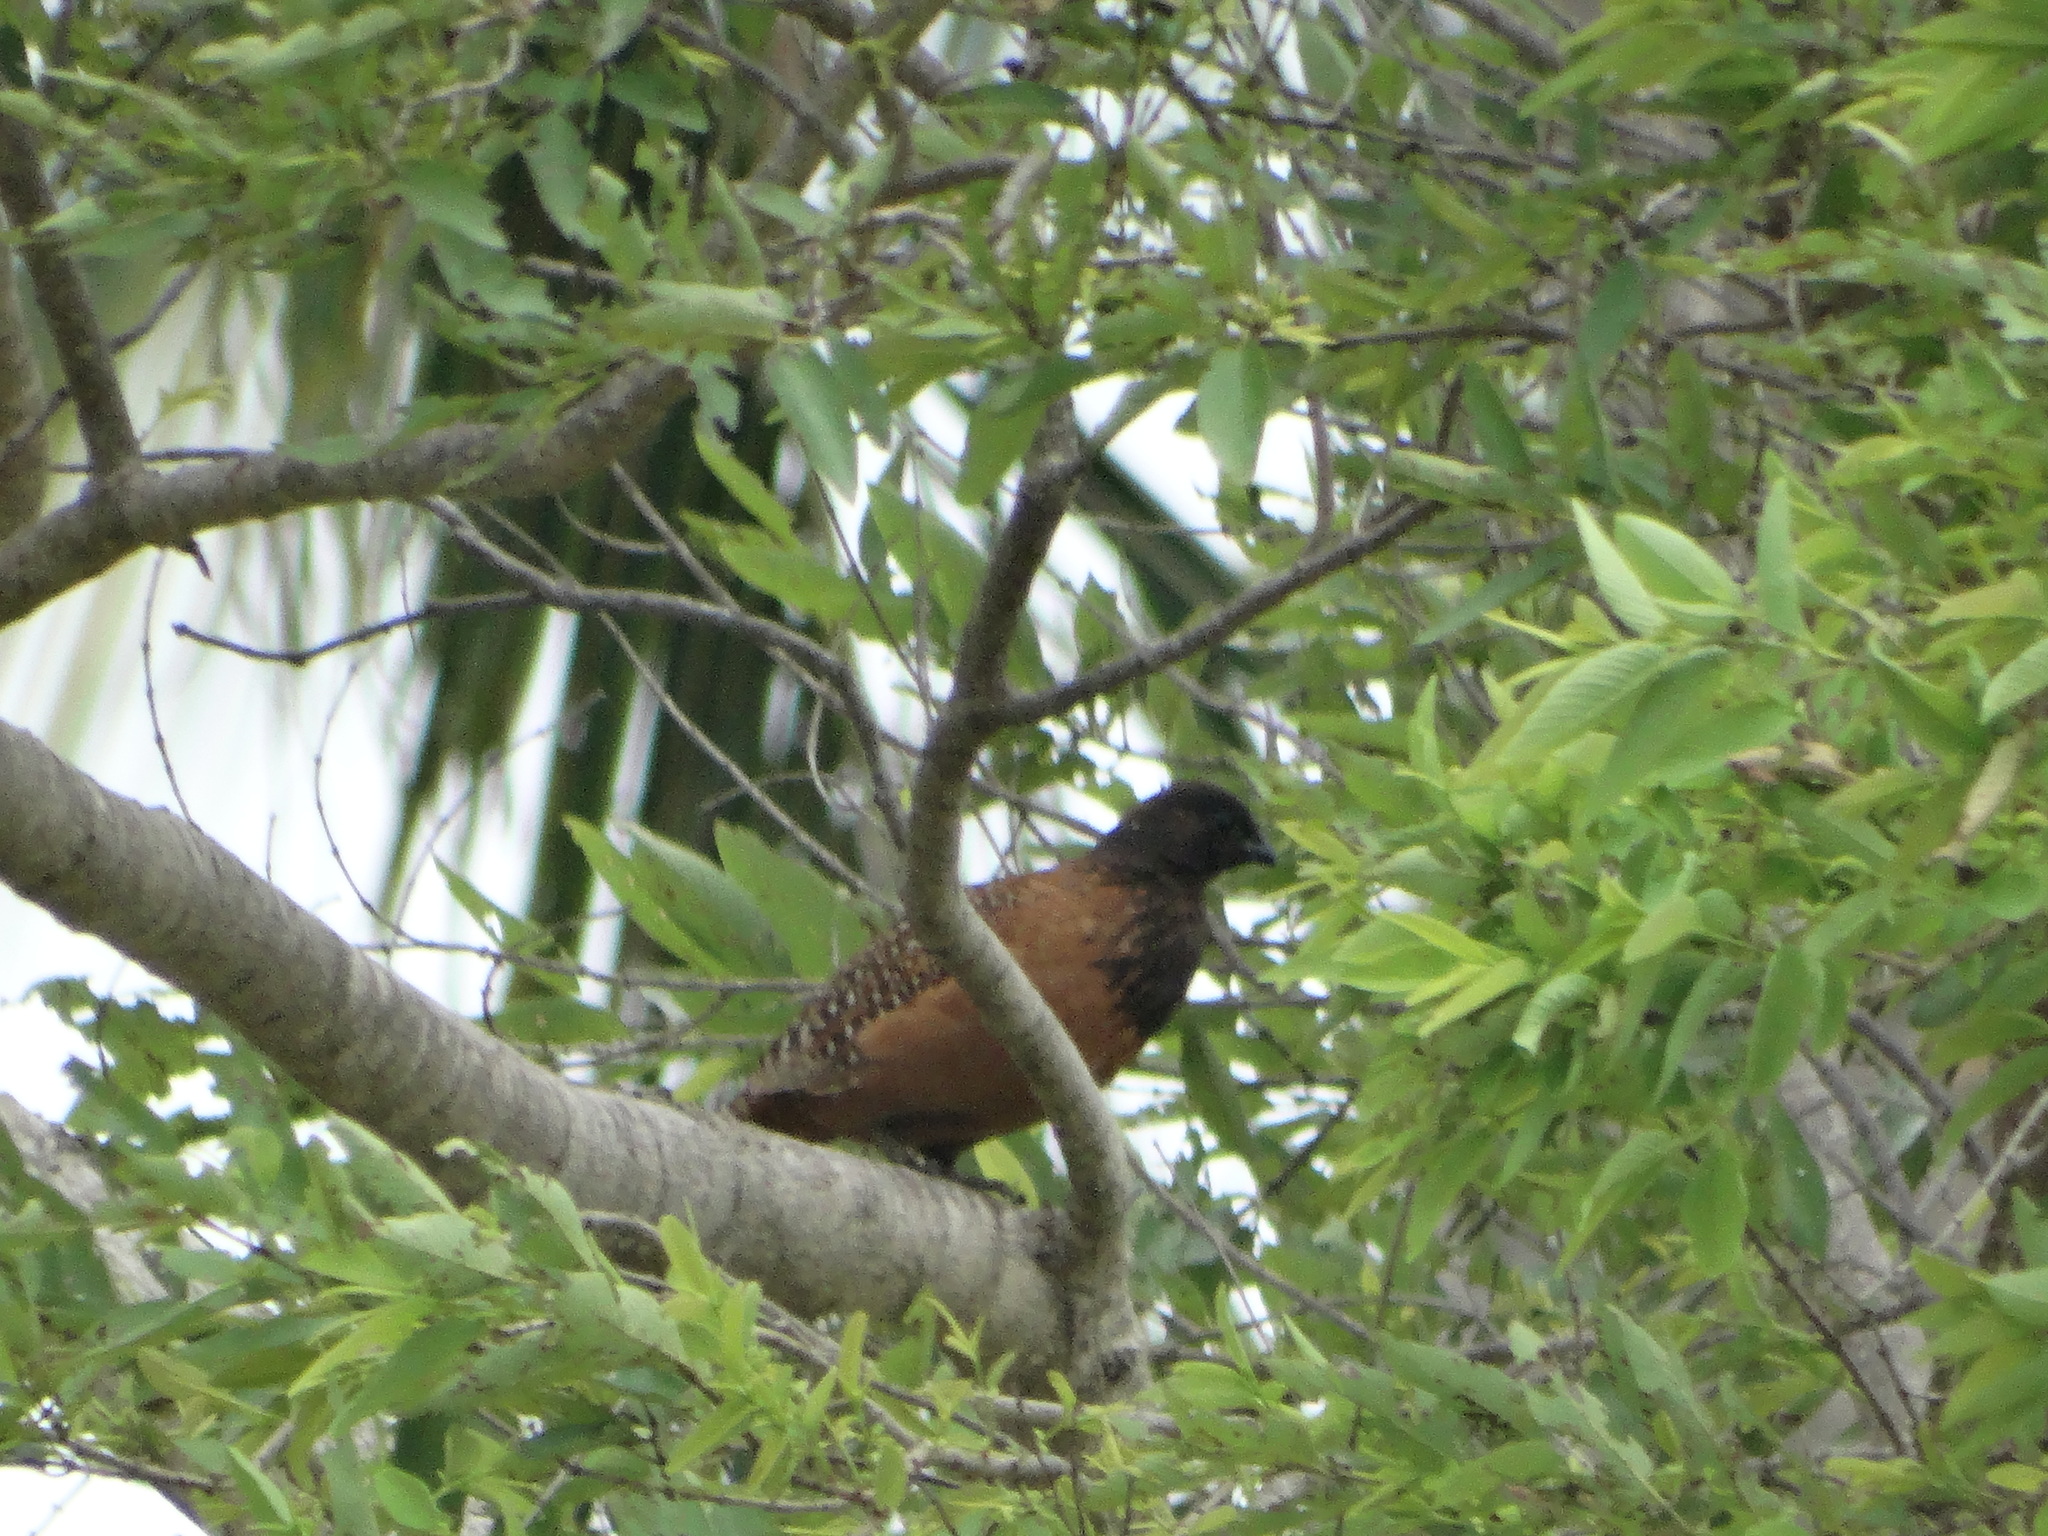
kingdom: Animalia
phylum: Chordata
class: Aves
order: Galliformes
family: Odontophoridae
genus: Colinus
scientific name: Colinus virginianus
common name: Northern bobwhite
